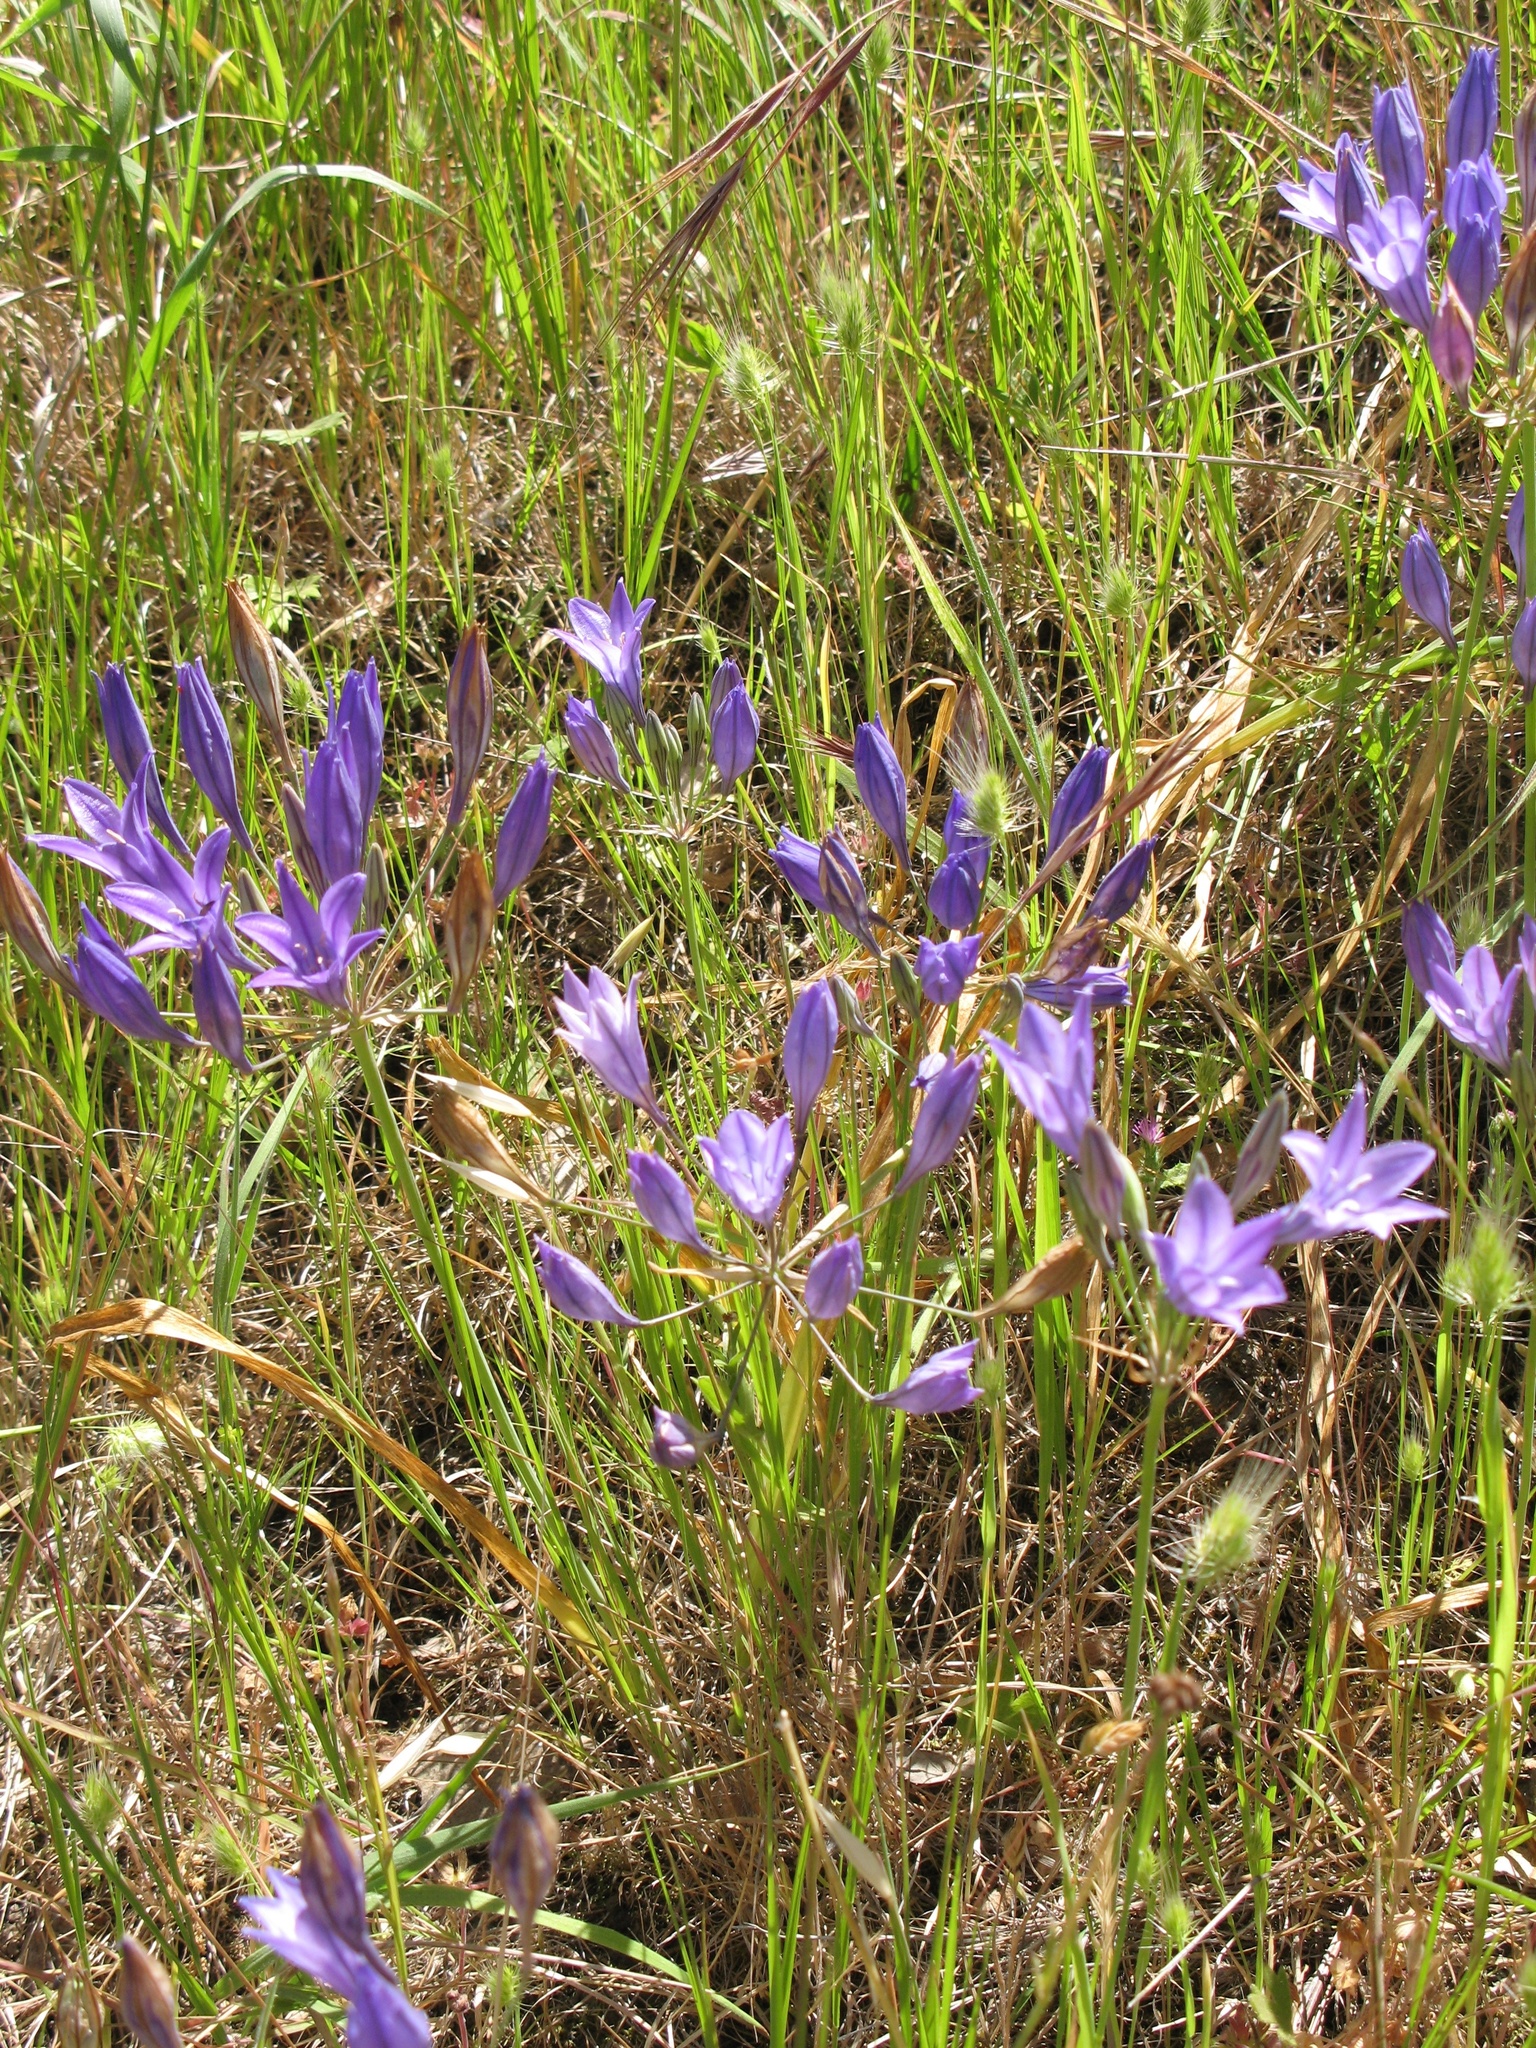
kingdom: Plantae
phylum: Tracheophyta
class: Liliopsida
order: Asparagales
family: Asparagaceae
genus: Triteleia
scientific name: Triteleia laxa
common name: Triplet-lily
